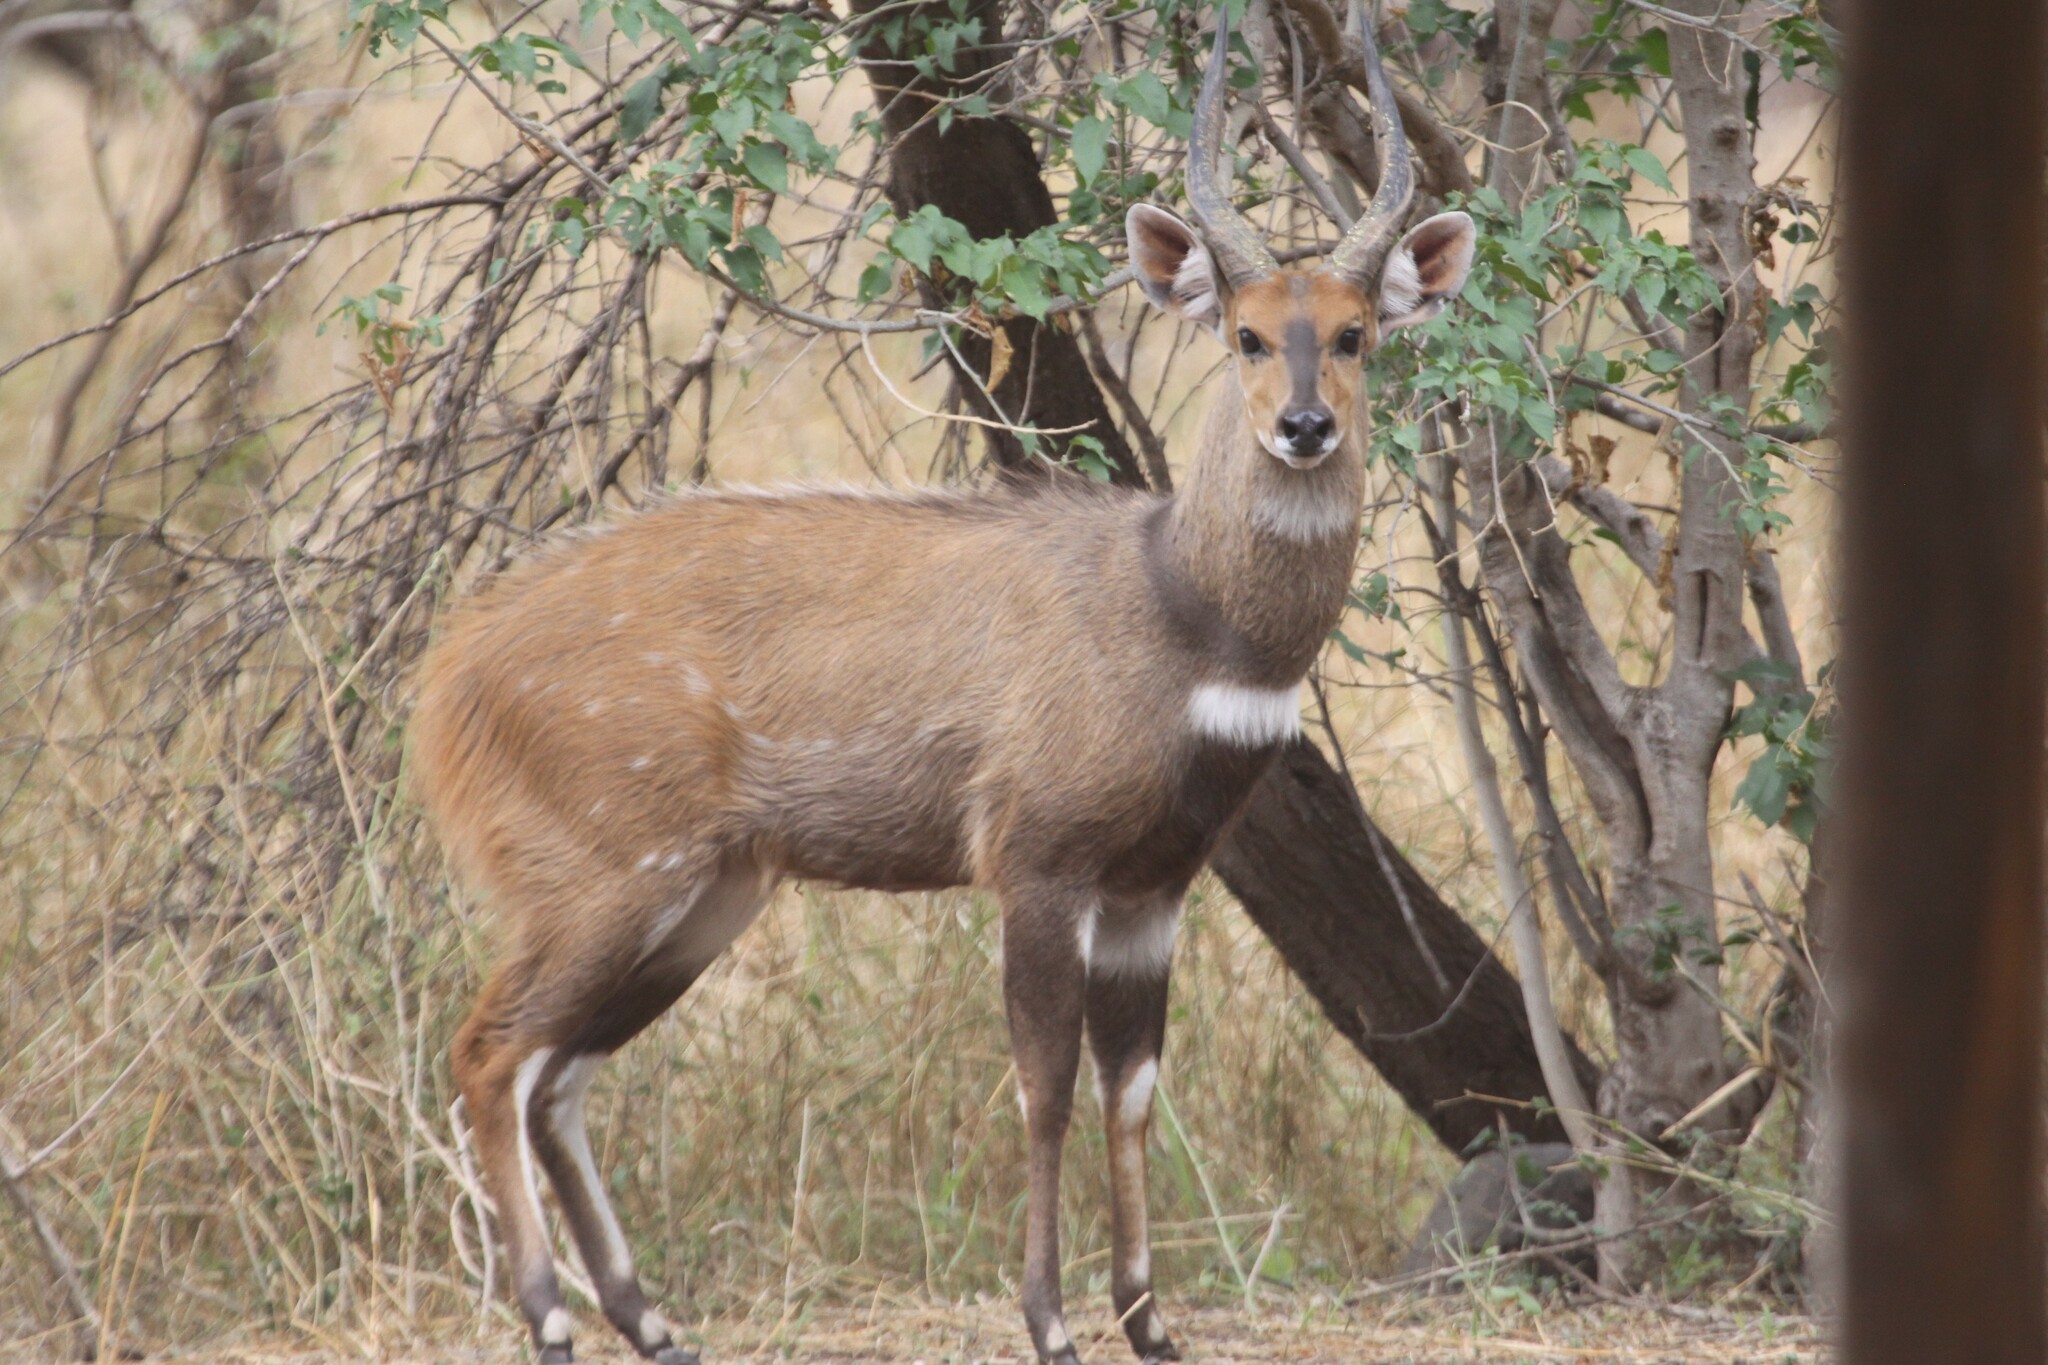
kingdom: Animalia
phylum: Chordata
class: Mammalia
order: Artiodactyla
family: Bovidae
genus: Tragelaphus
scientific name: Tragelaphus scriptus
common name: Bushbuck
